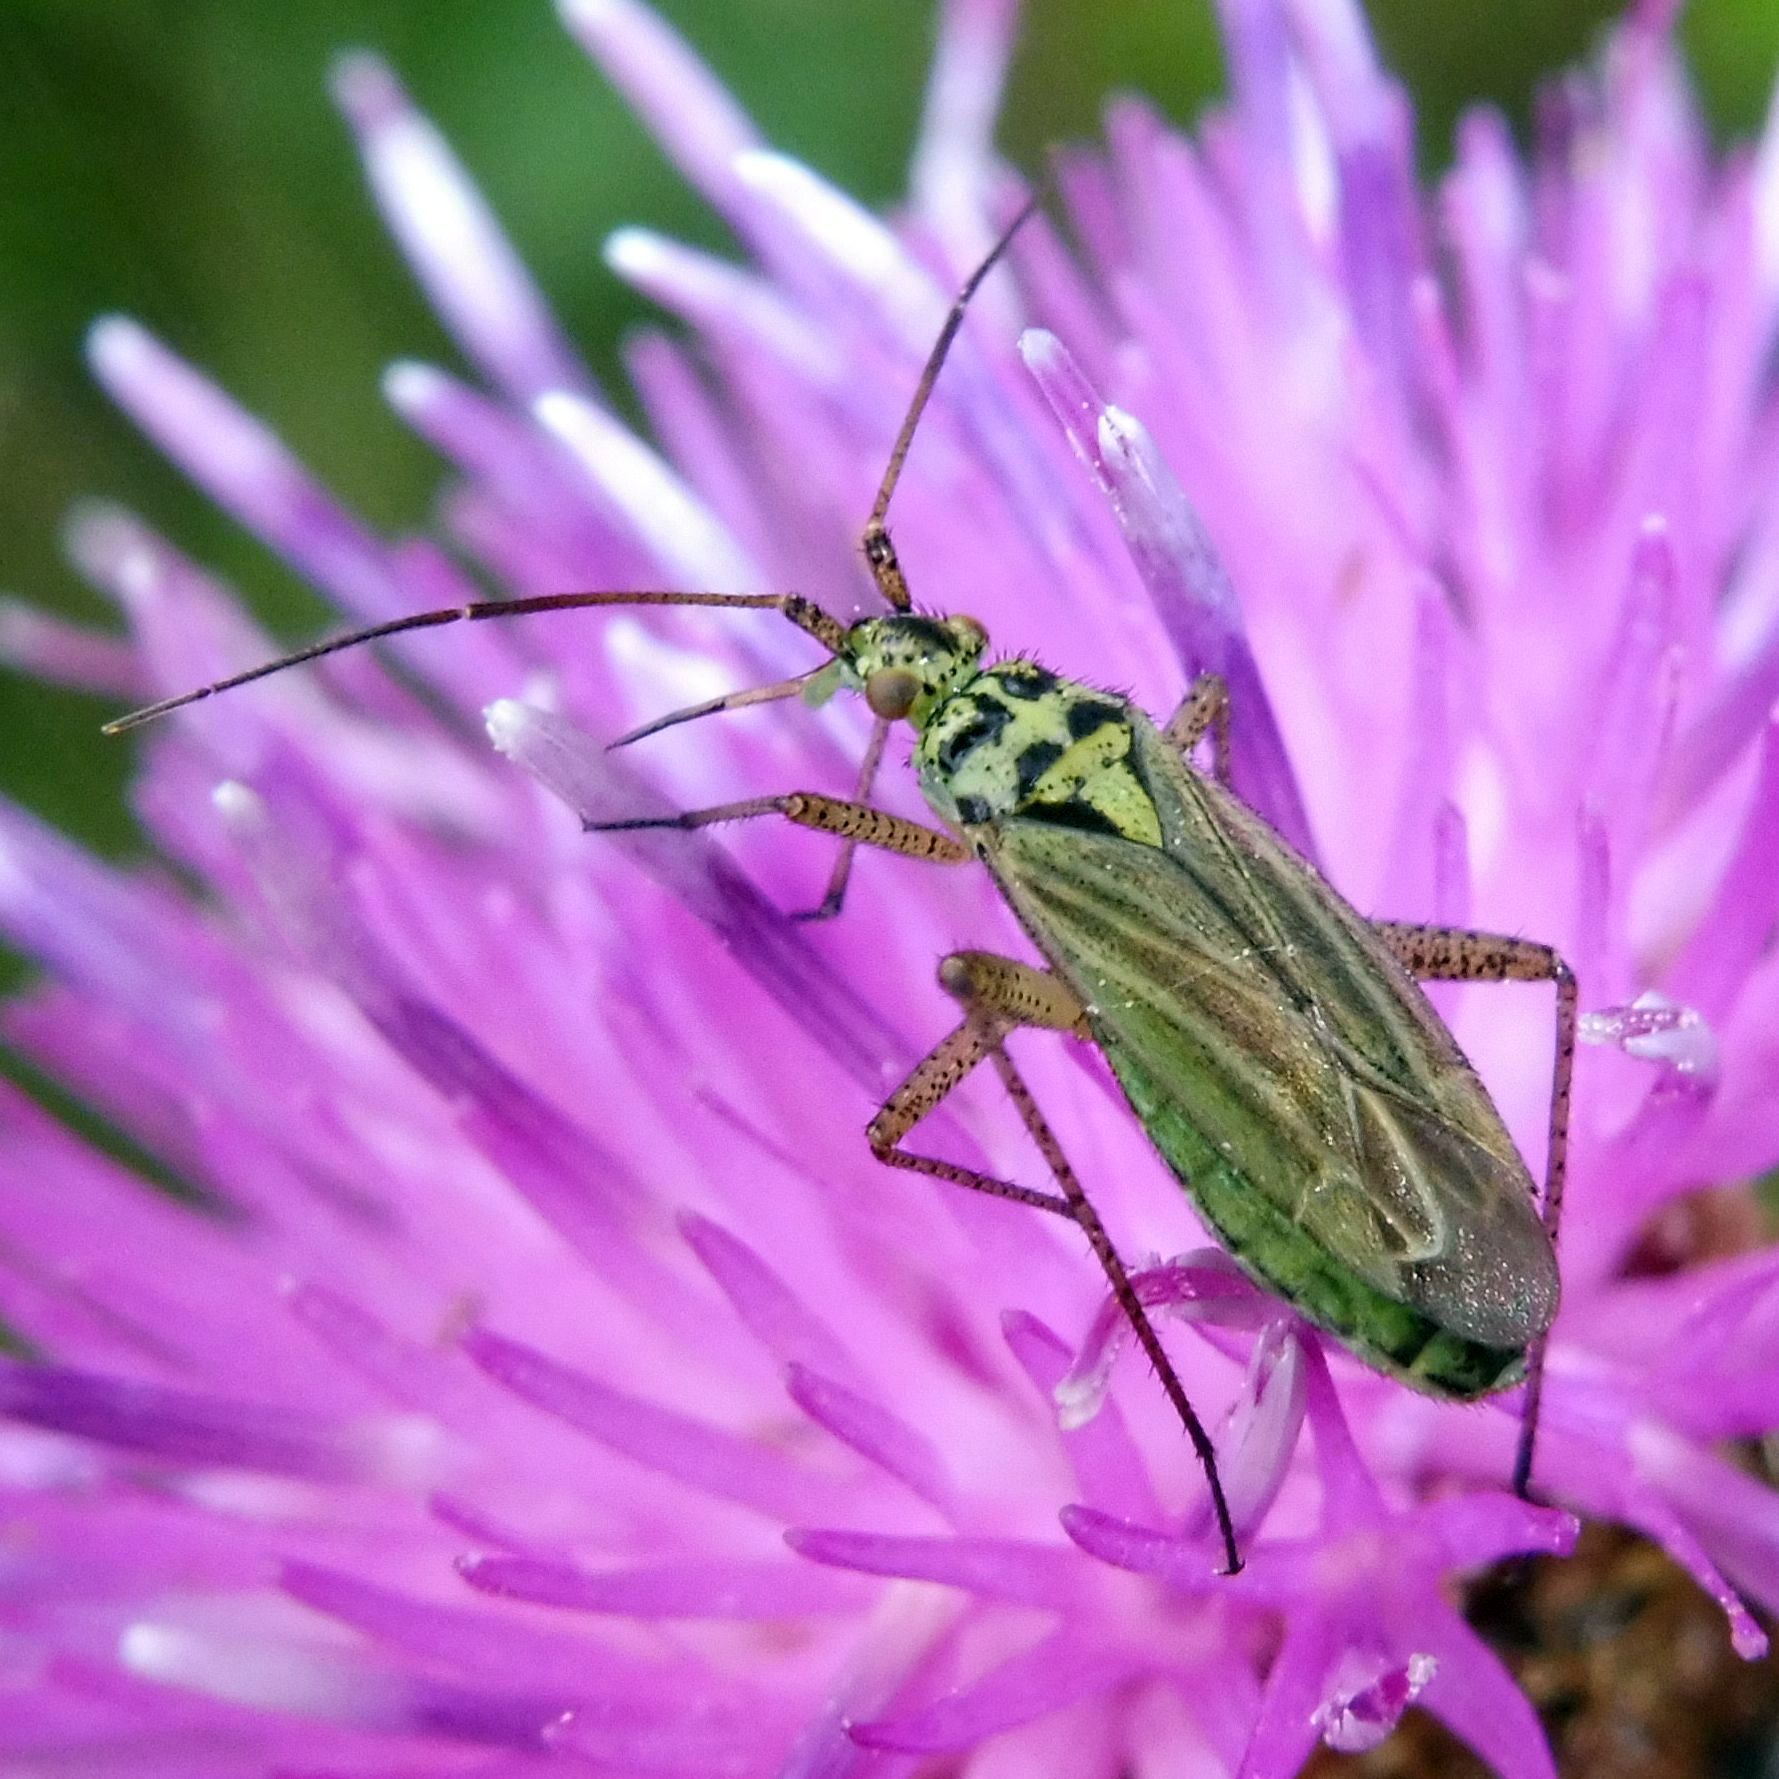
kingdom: Animalia
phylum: Arthropoda
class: Insecta
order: Hemiptera
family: Miridae
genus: Oncotylus
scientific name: Oncotylus viridiflavus
